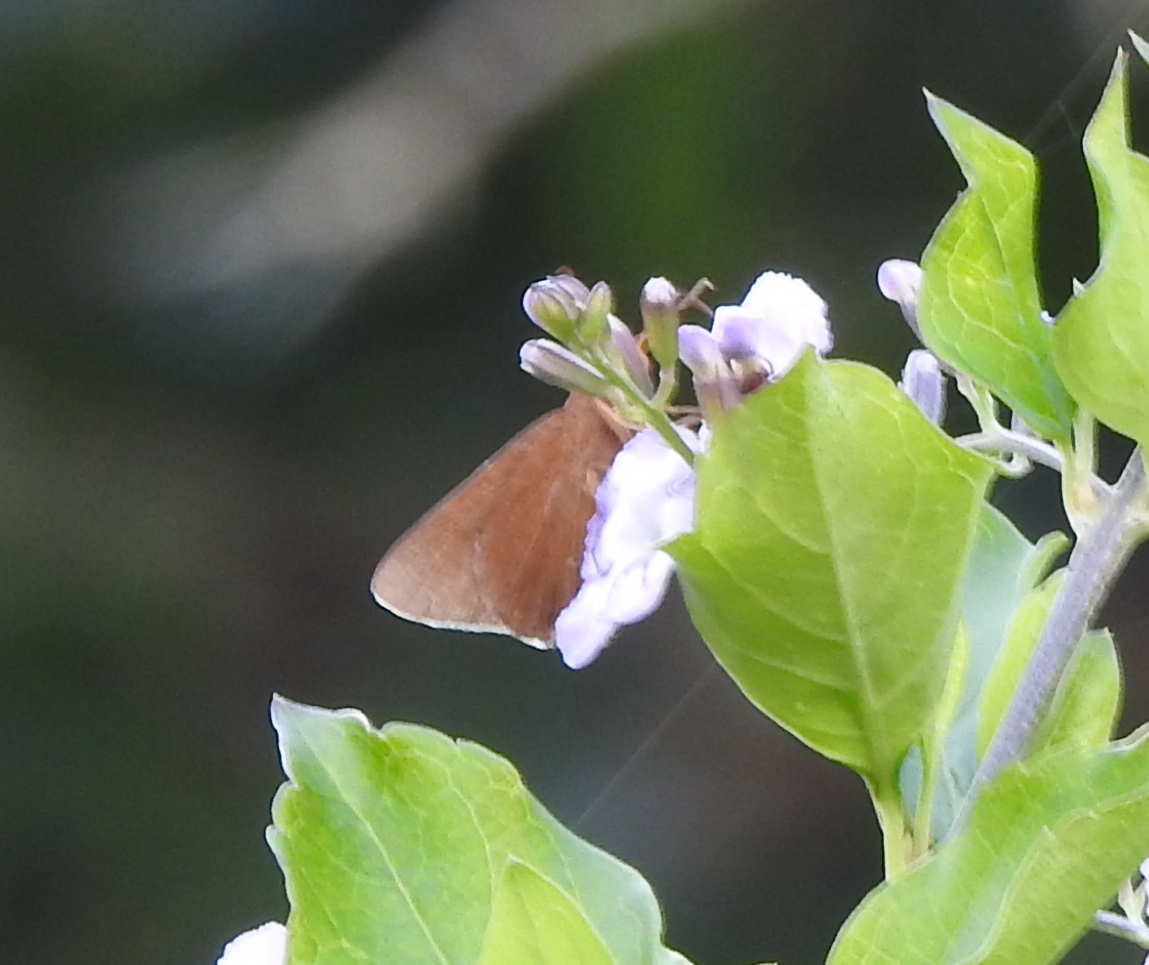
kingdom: Animalia
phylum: Arthropoda
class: Insecta
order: Lepidoptera
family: Hesperiidae
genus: Matapa
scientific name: Matapa aria
